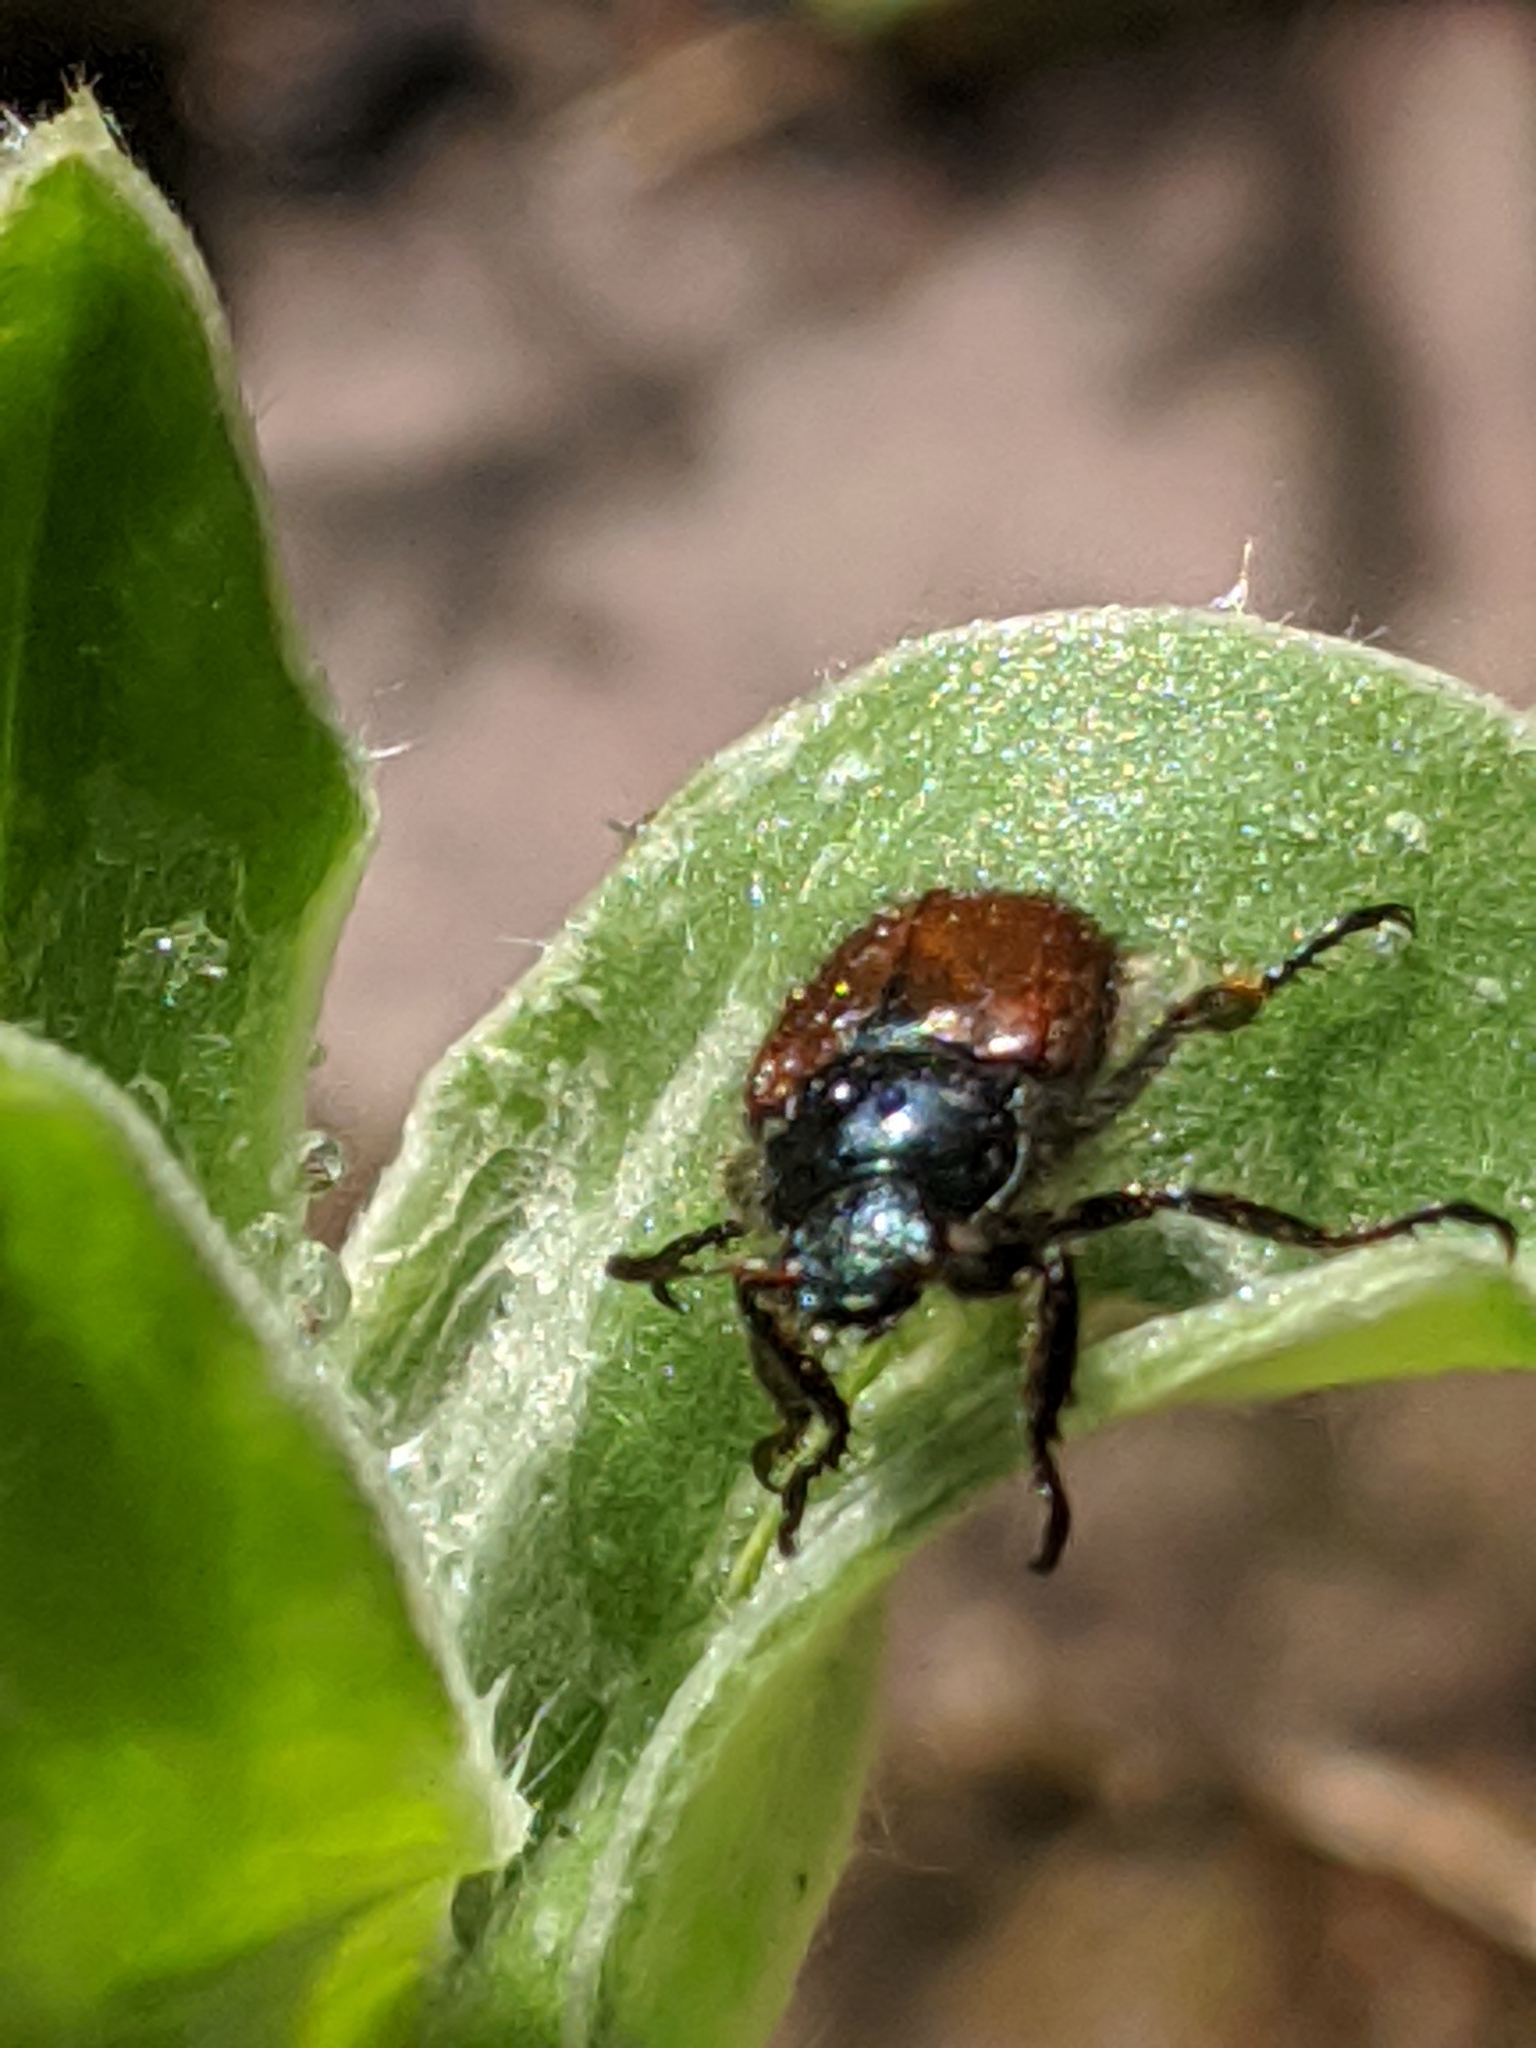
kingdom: Animalia
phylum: Arthropoda
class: Insecta
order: Coleoptera
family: Scarabaeidae
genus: Phyllopertha
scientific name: Phyllopertha horticola
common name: Garden chafer
